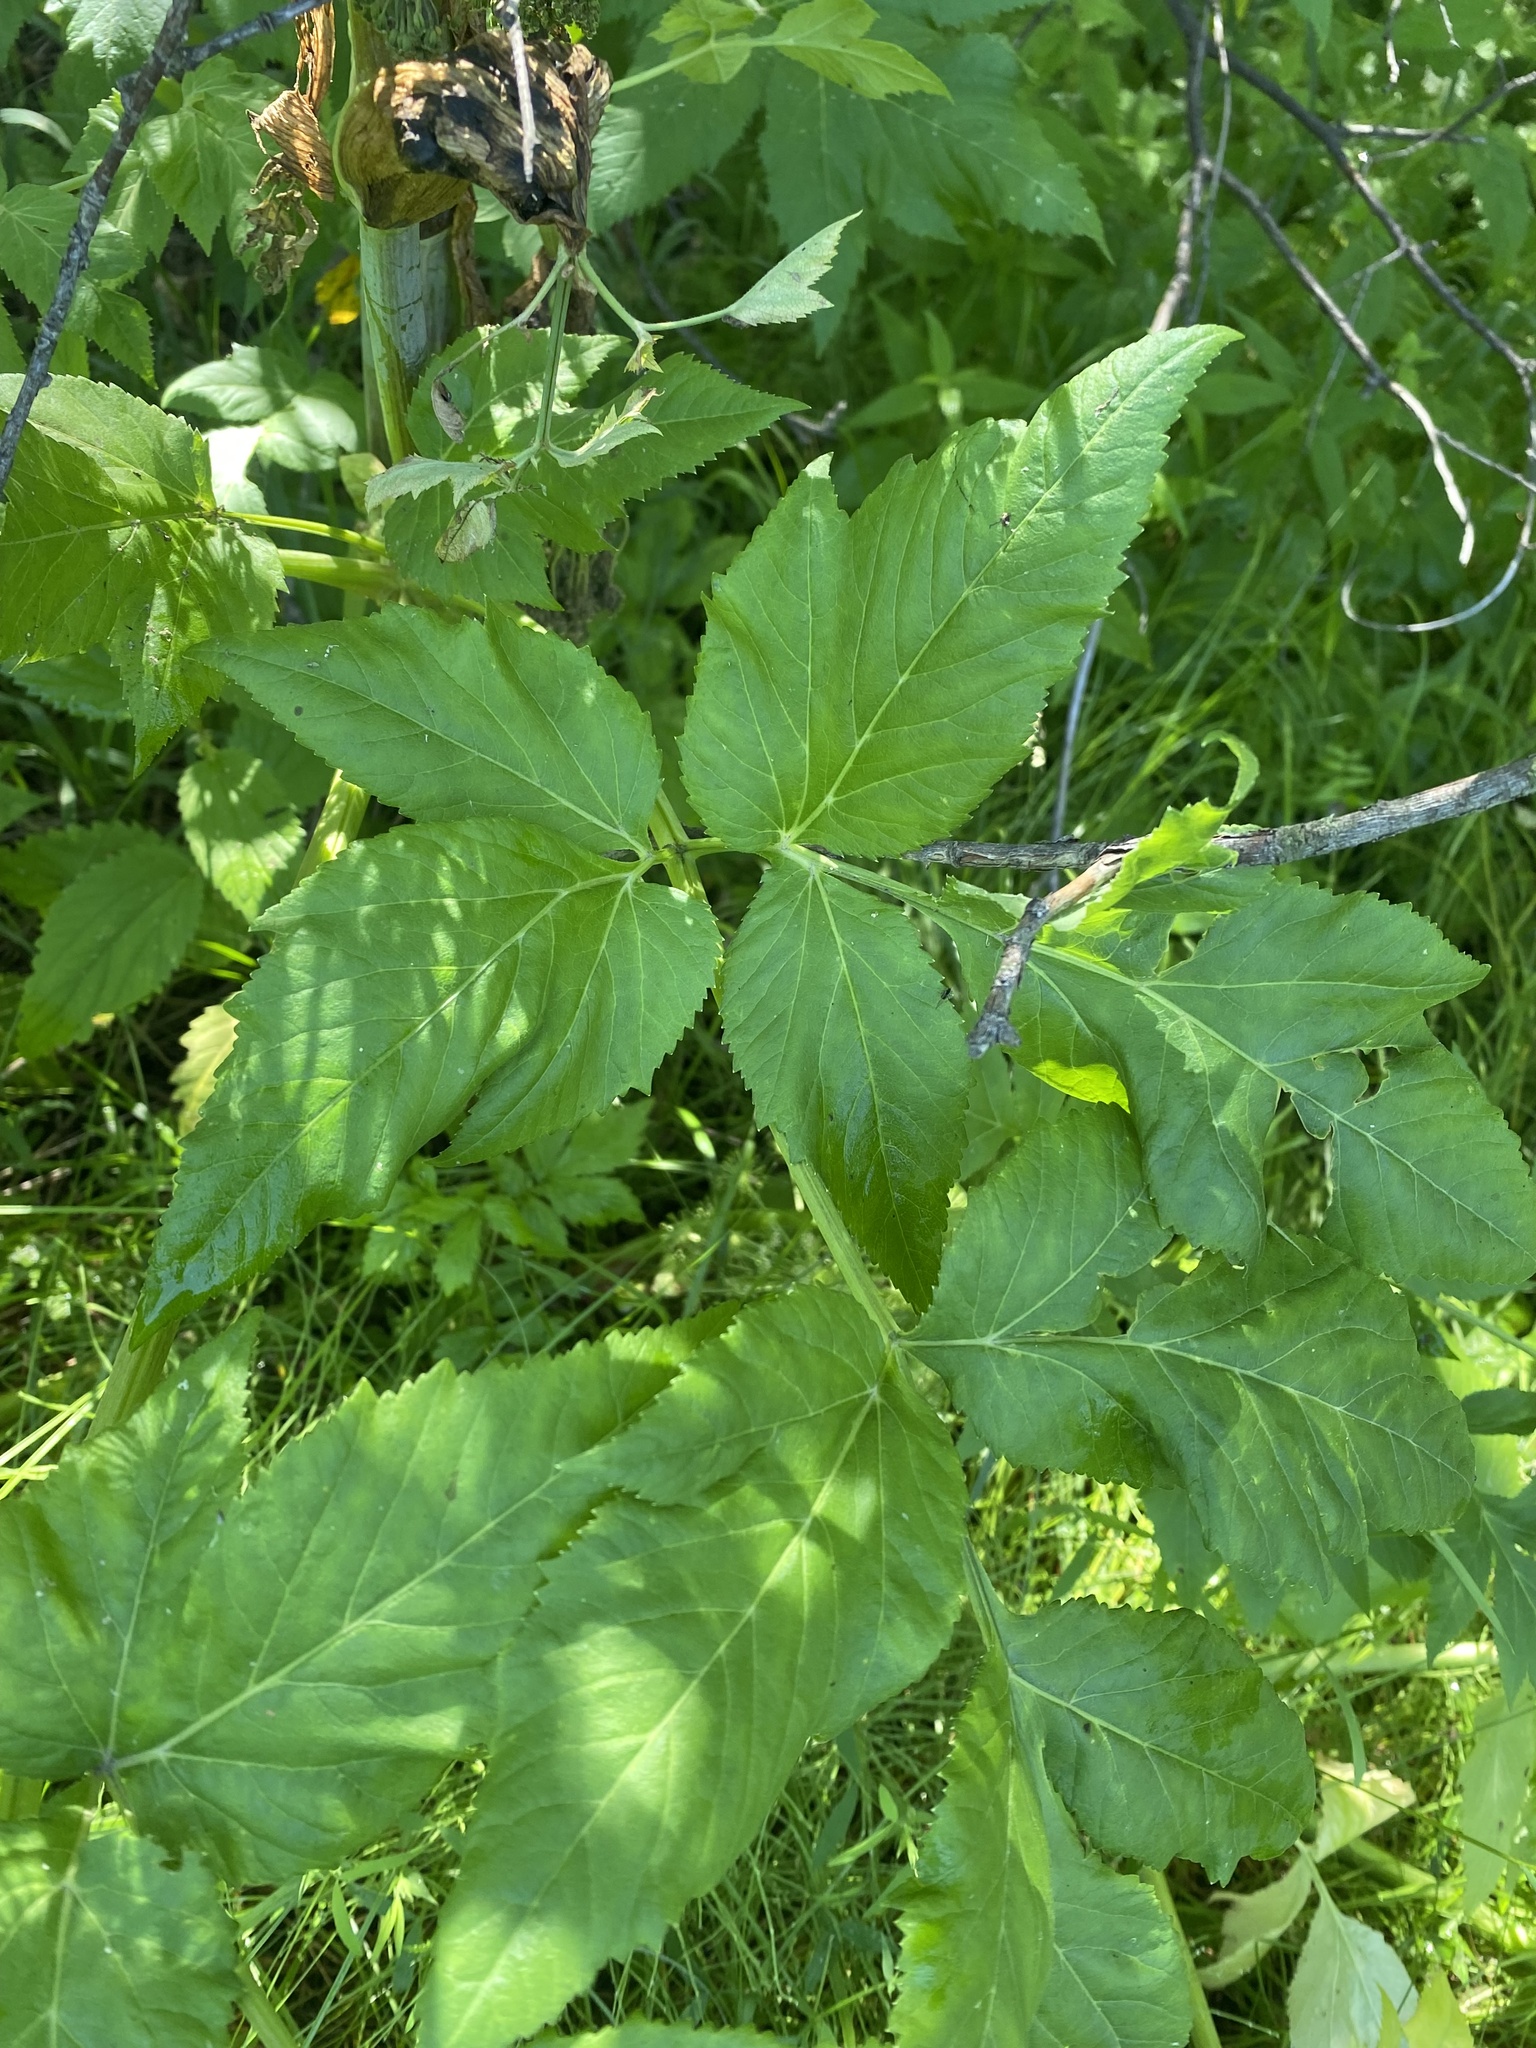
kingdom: Plantae
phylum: Tracheophyta
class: Magnoliopsida
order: Apiales
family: Apiaceae
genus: Angelica
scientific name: Angelica decurrens
